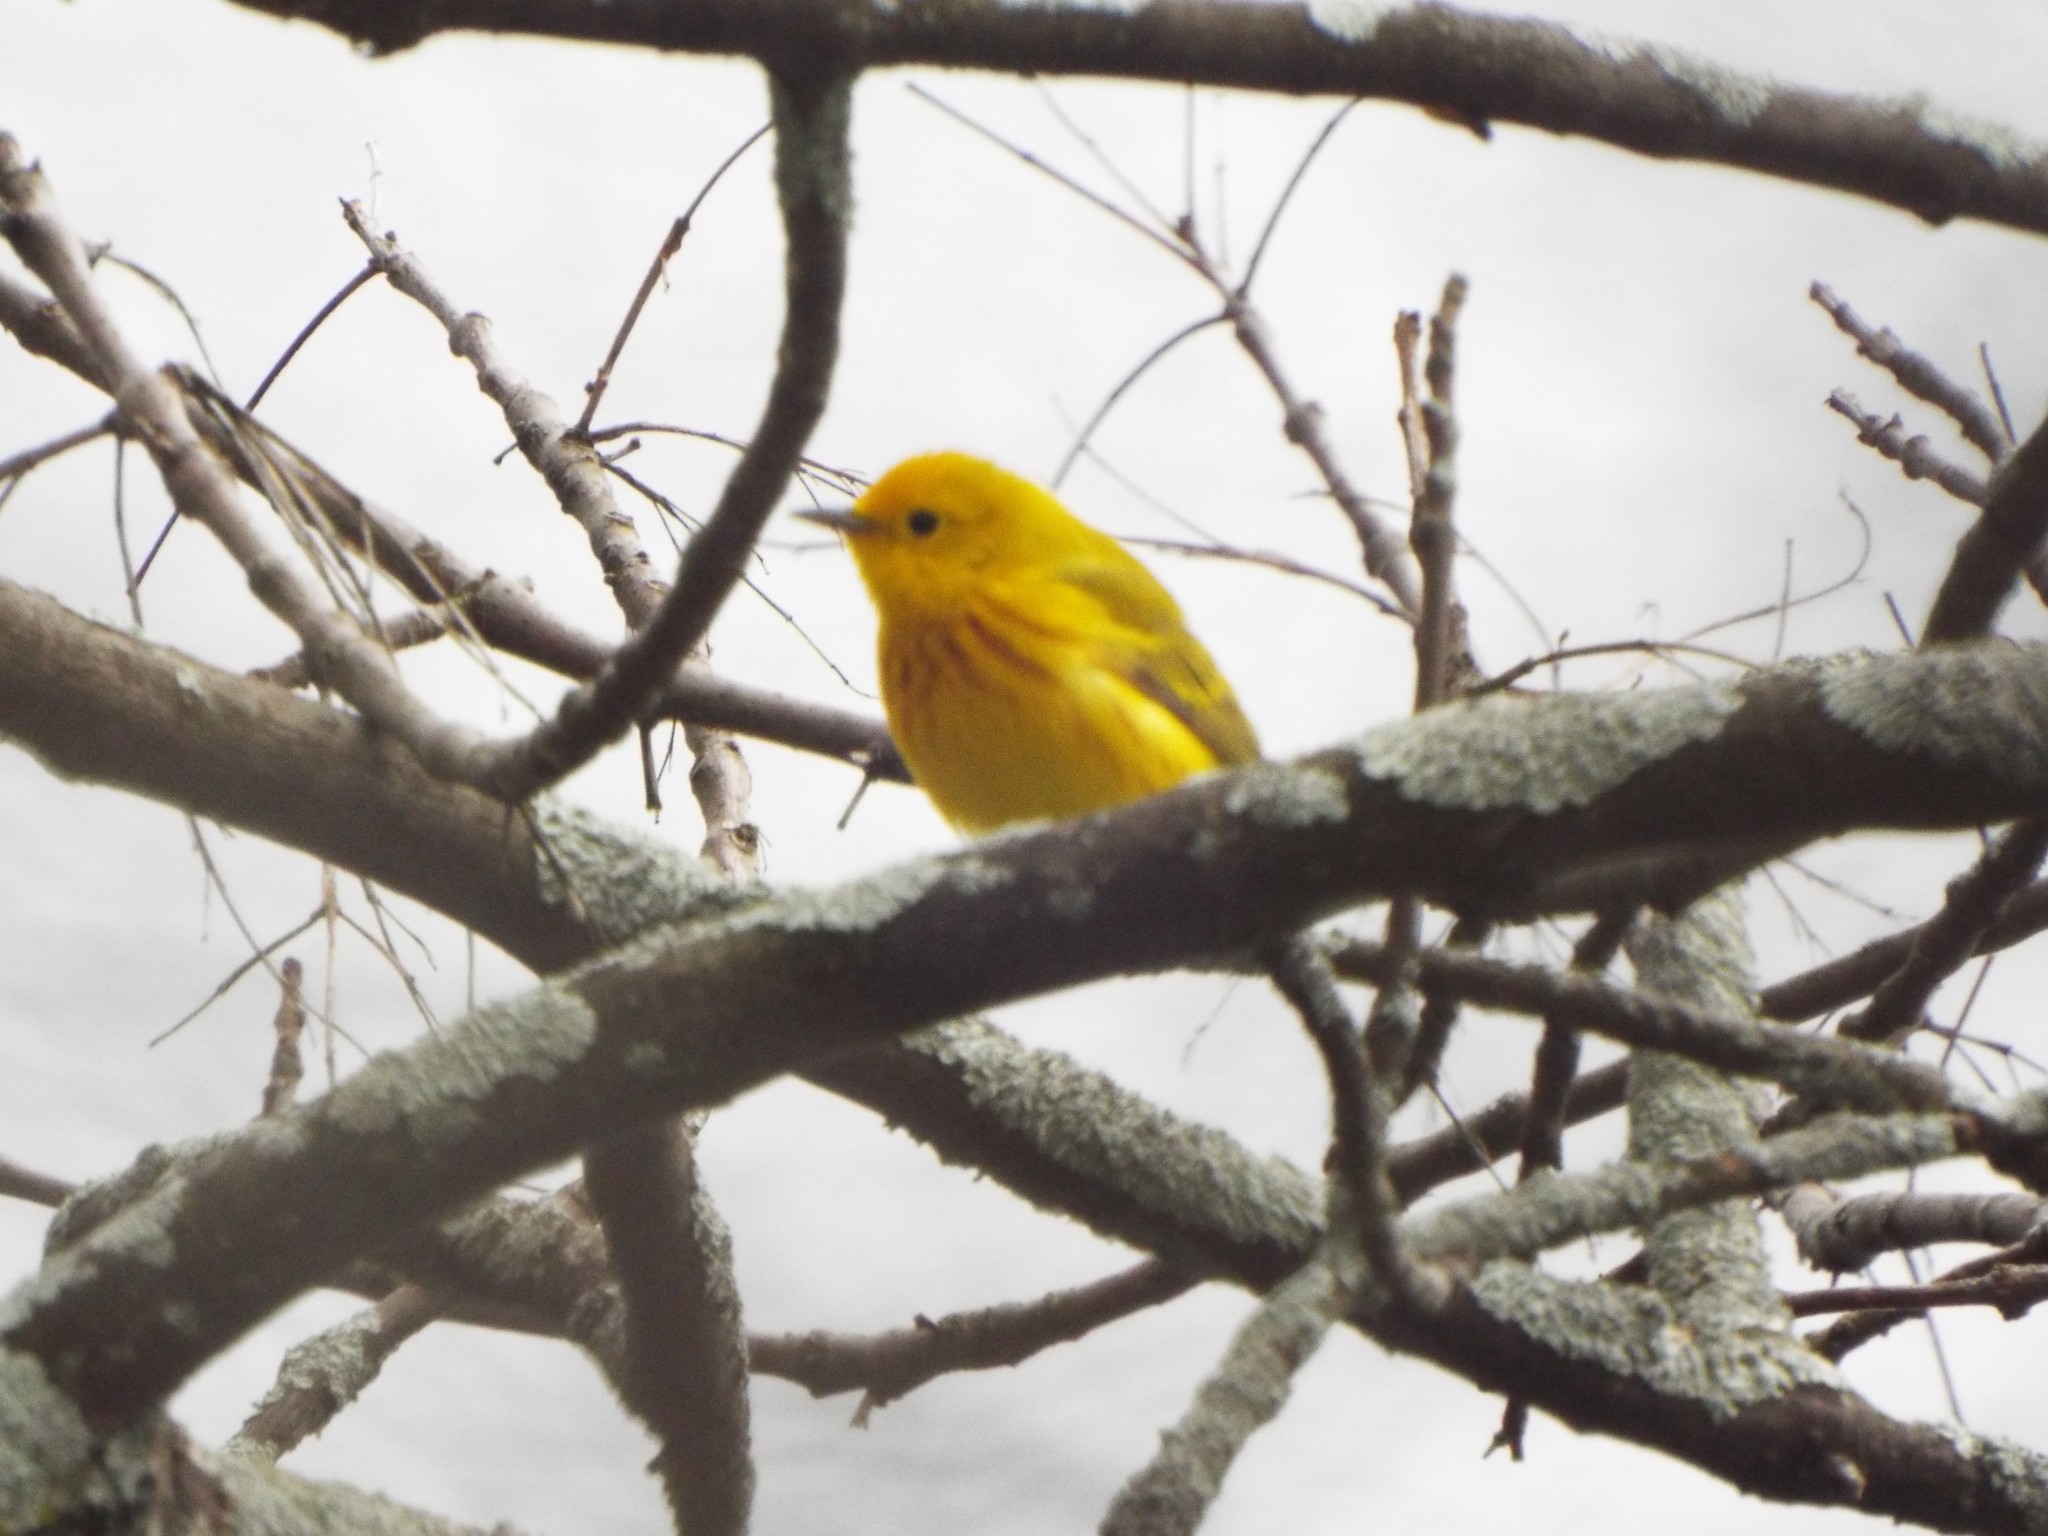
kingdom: Animalia
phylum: Chordata
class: Aves
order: Passeriformes
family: Parulidae
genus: Setophaga
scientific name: Setophaga petechia
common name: Yellow warbler
